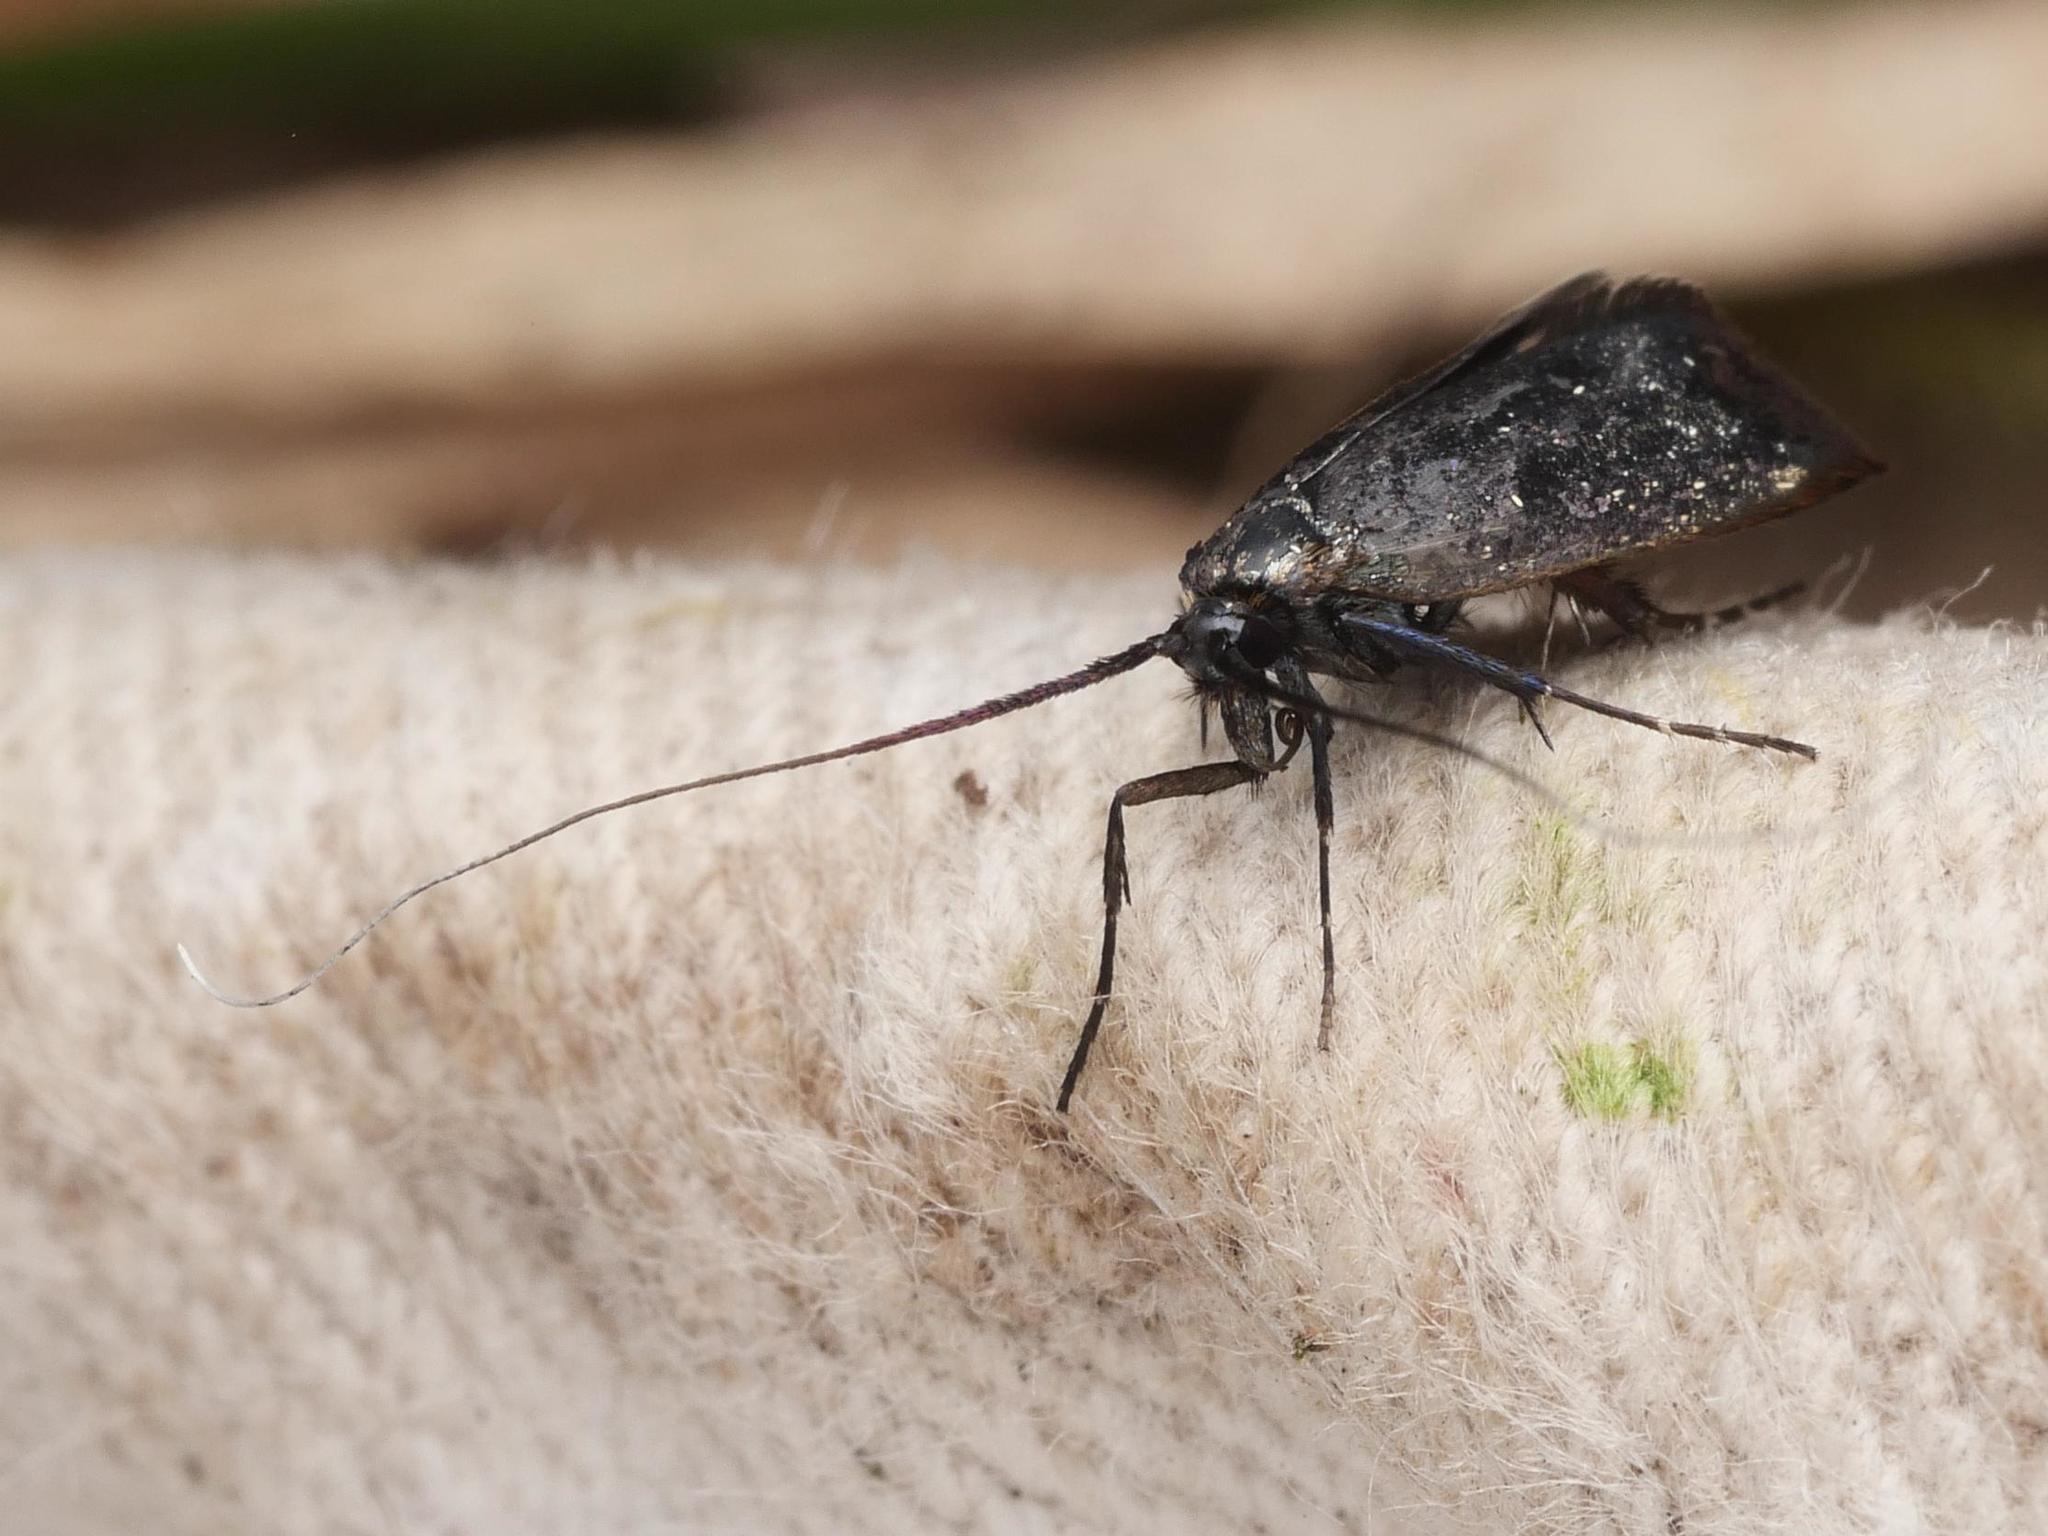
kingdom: Animalia
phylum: Arthropoda
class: Insecta
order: Lepidoptera
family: Adelidae
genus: Adela
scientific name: Adela viridella
